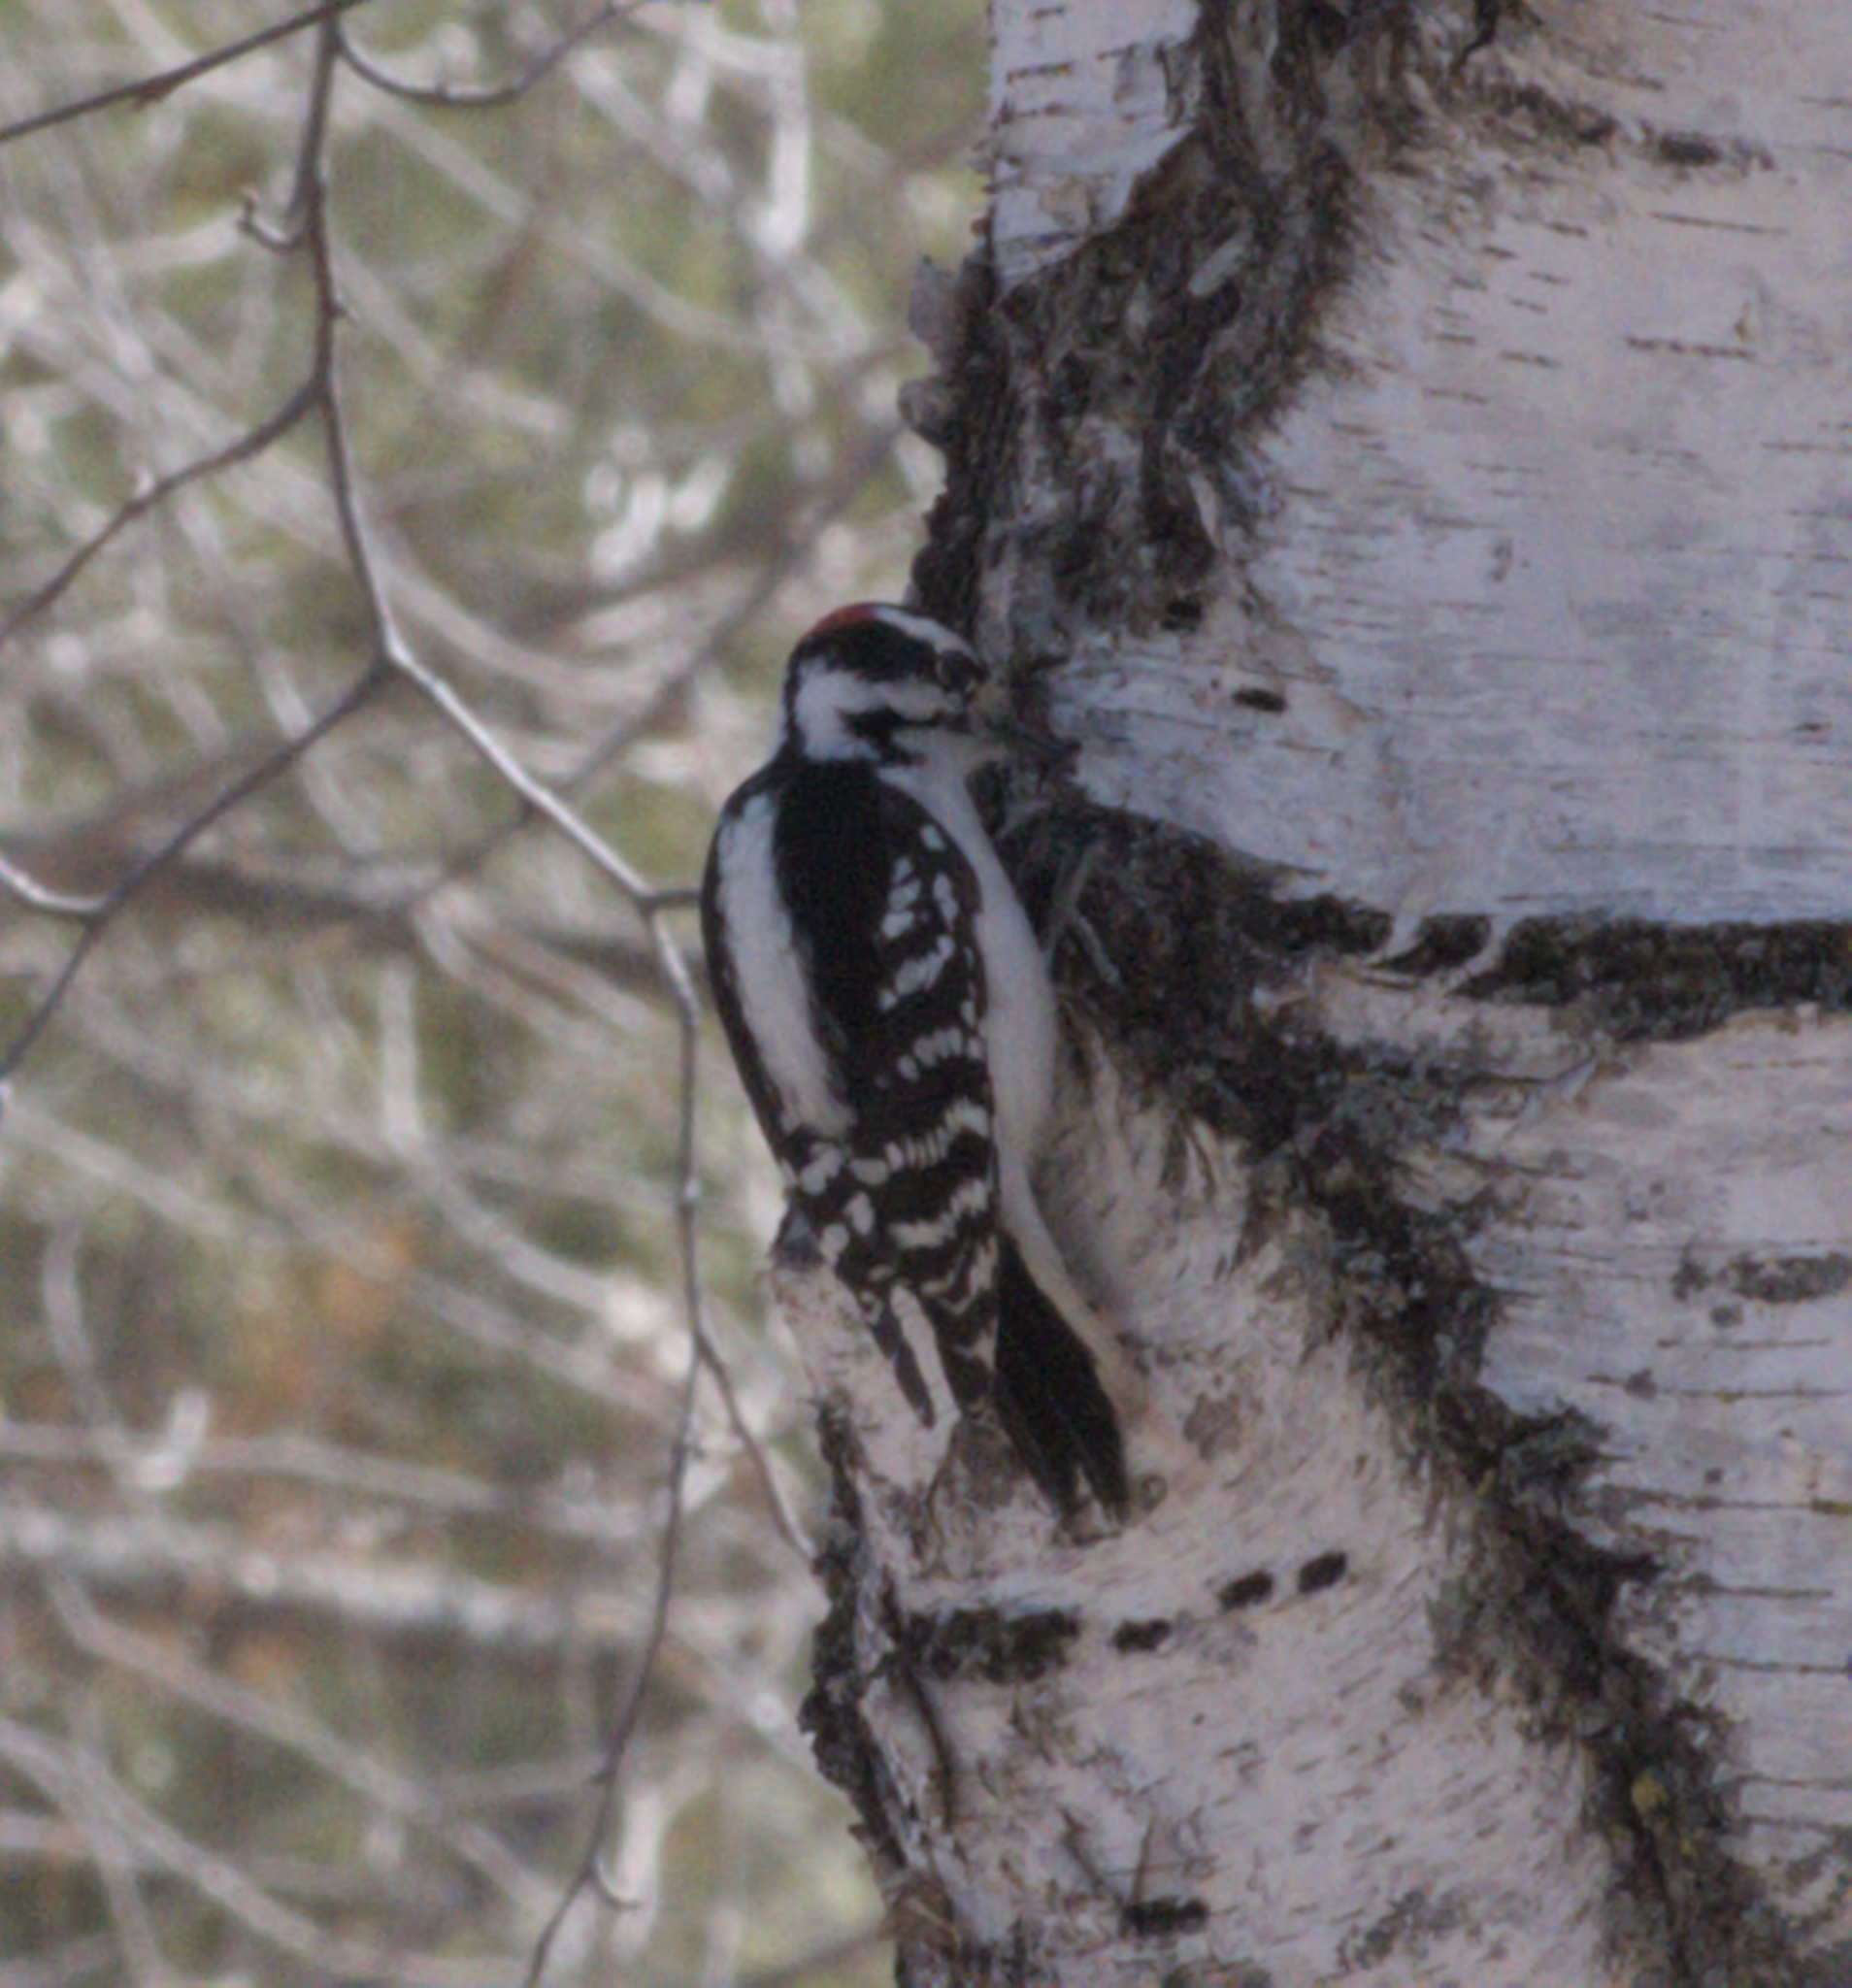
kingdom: Animalia
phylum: Chordata
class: Aves
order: Piciformes
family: Picidae
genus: Dryobates
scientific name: Dryobates pubescens
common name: Downy woodpecker
